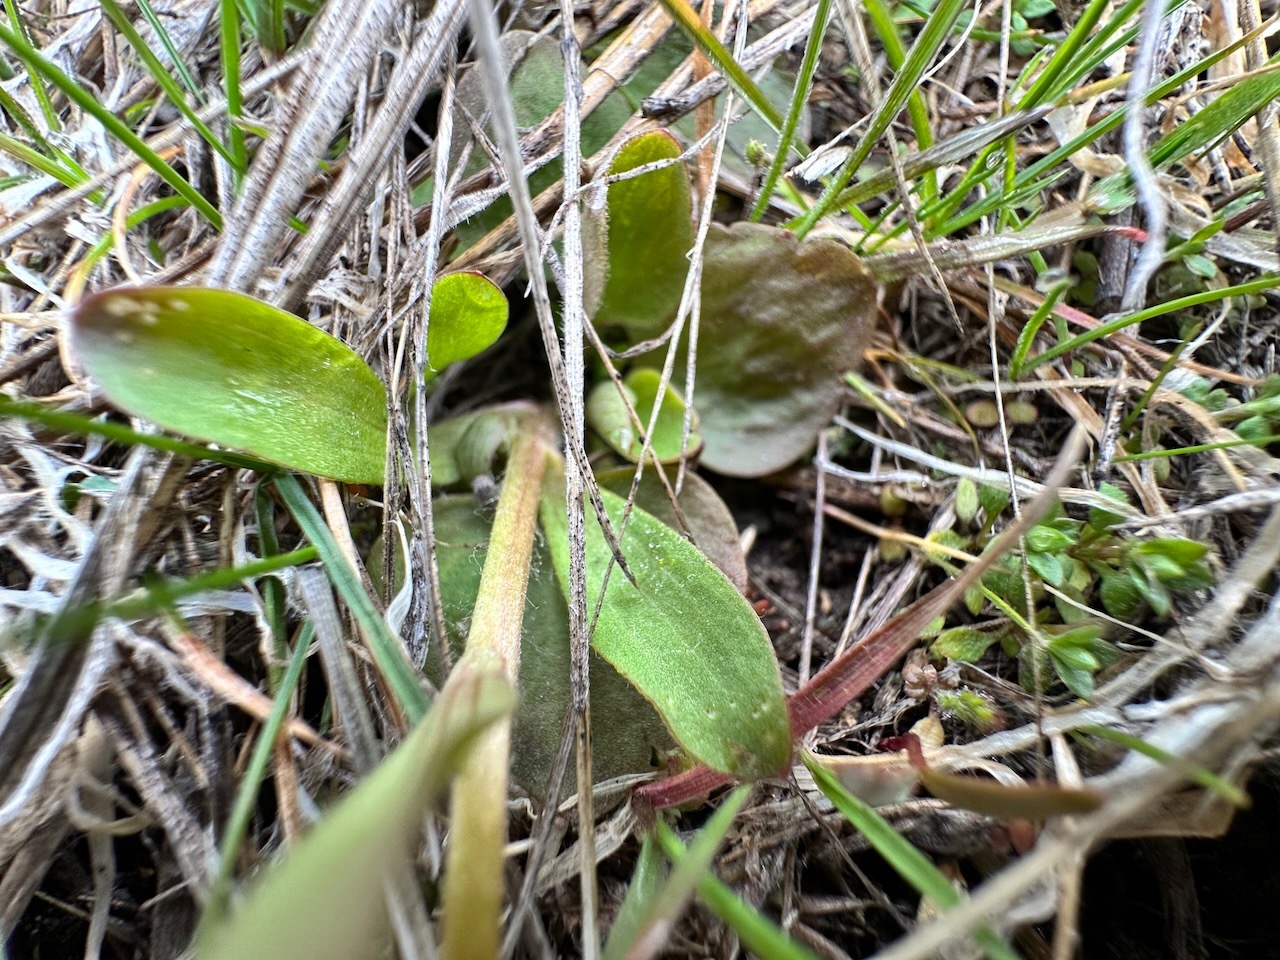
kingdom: Plantae
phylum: Tracheophyta
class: Magnoliopsida
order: Ranunculales
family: Ranunculaceae
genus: Ranunculus
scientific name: Ranunculus glaberrimus
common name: Sagebrush buttercup
